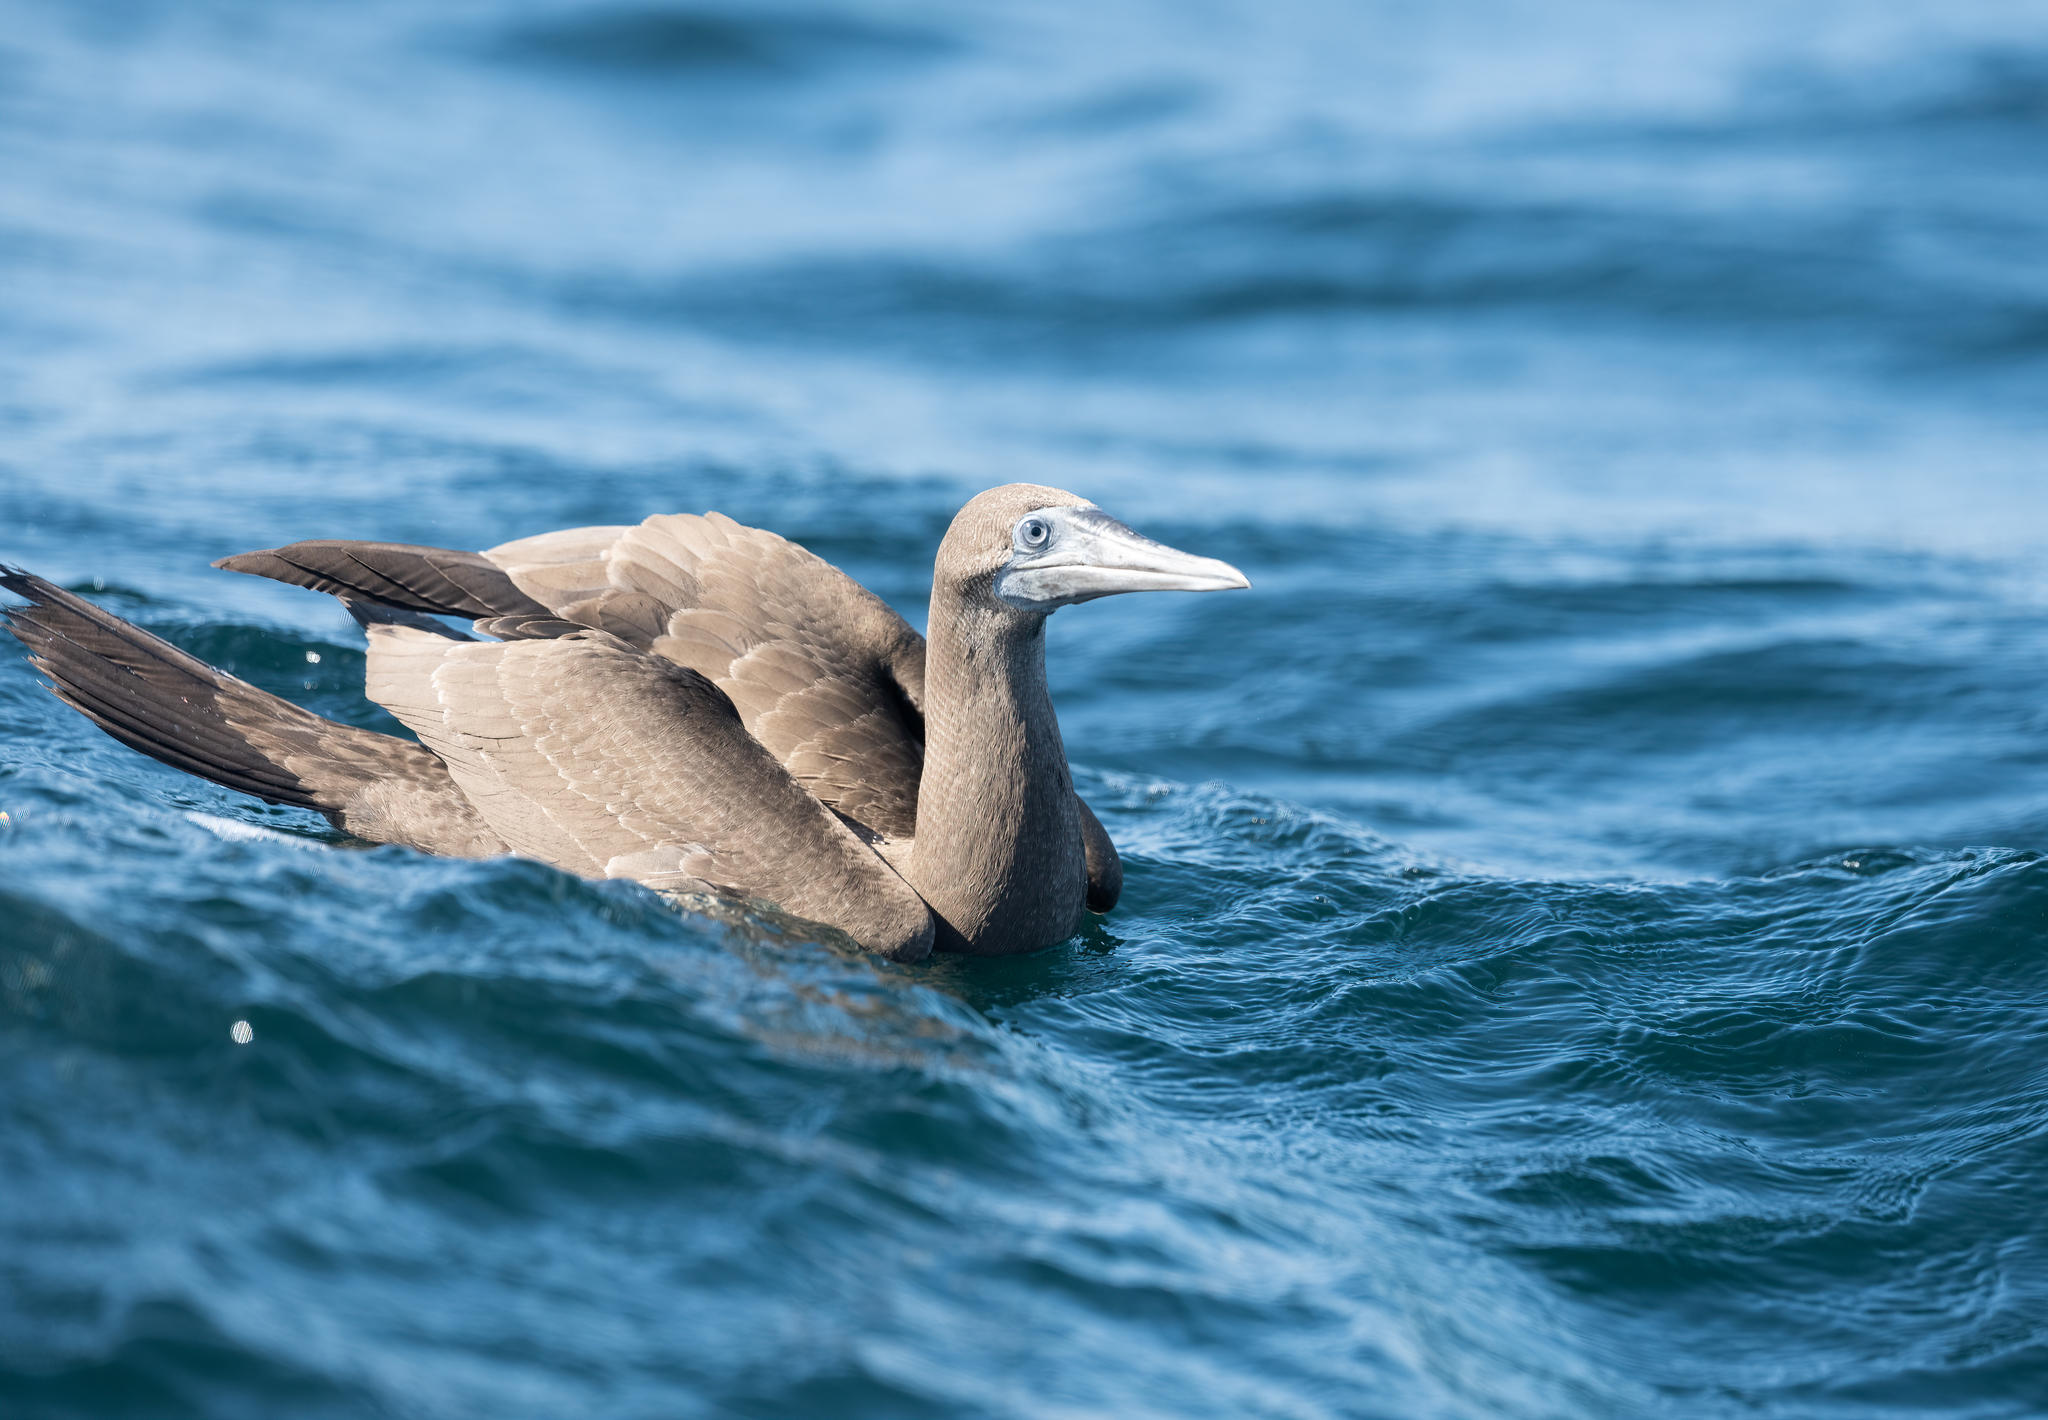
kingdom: Animalia
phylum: Chordata
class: Aves
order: Suliformes
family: Sulidae
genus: Sula
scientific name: Sula leucogaster
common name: Brown booby
